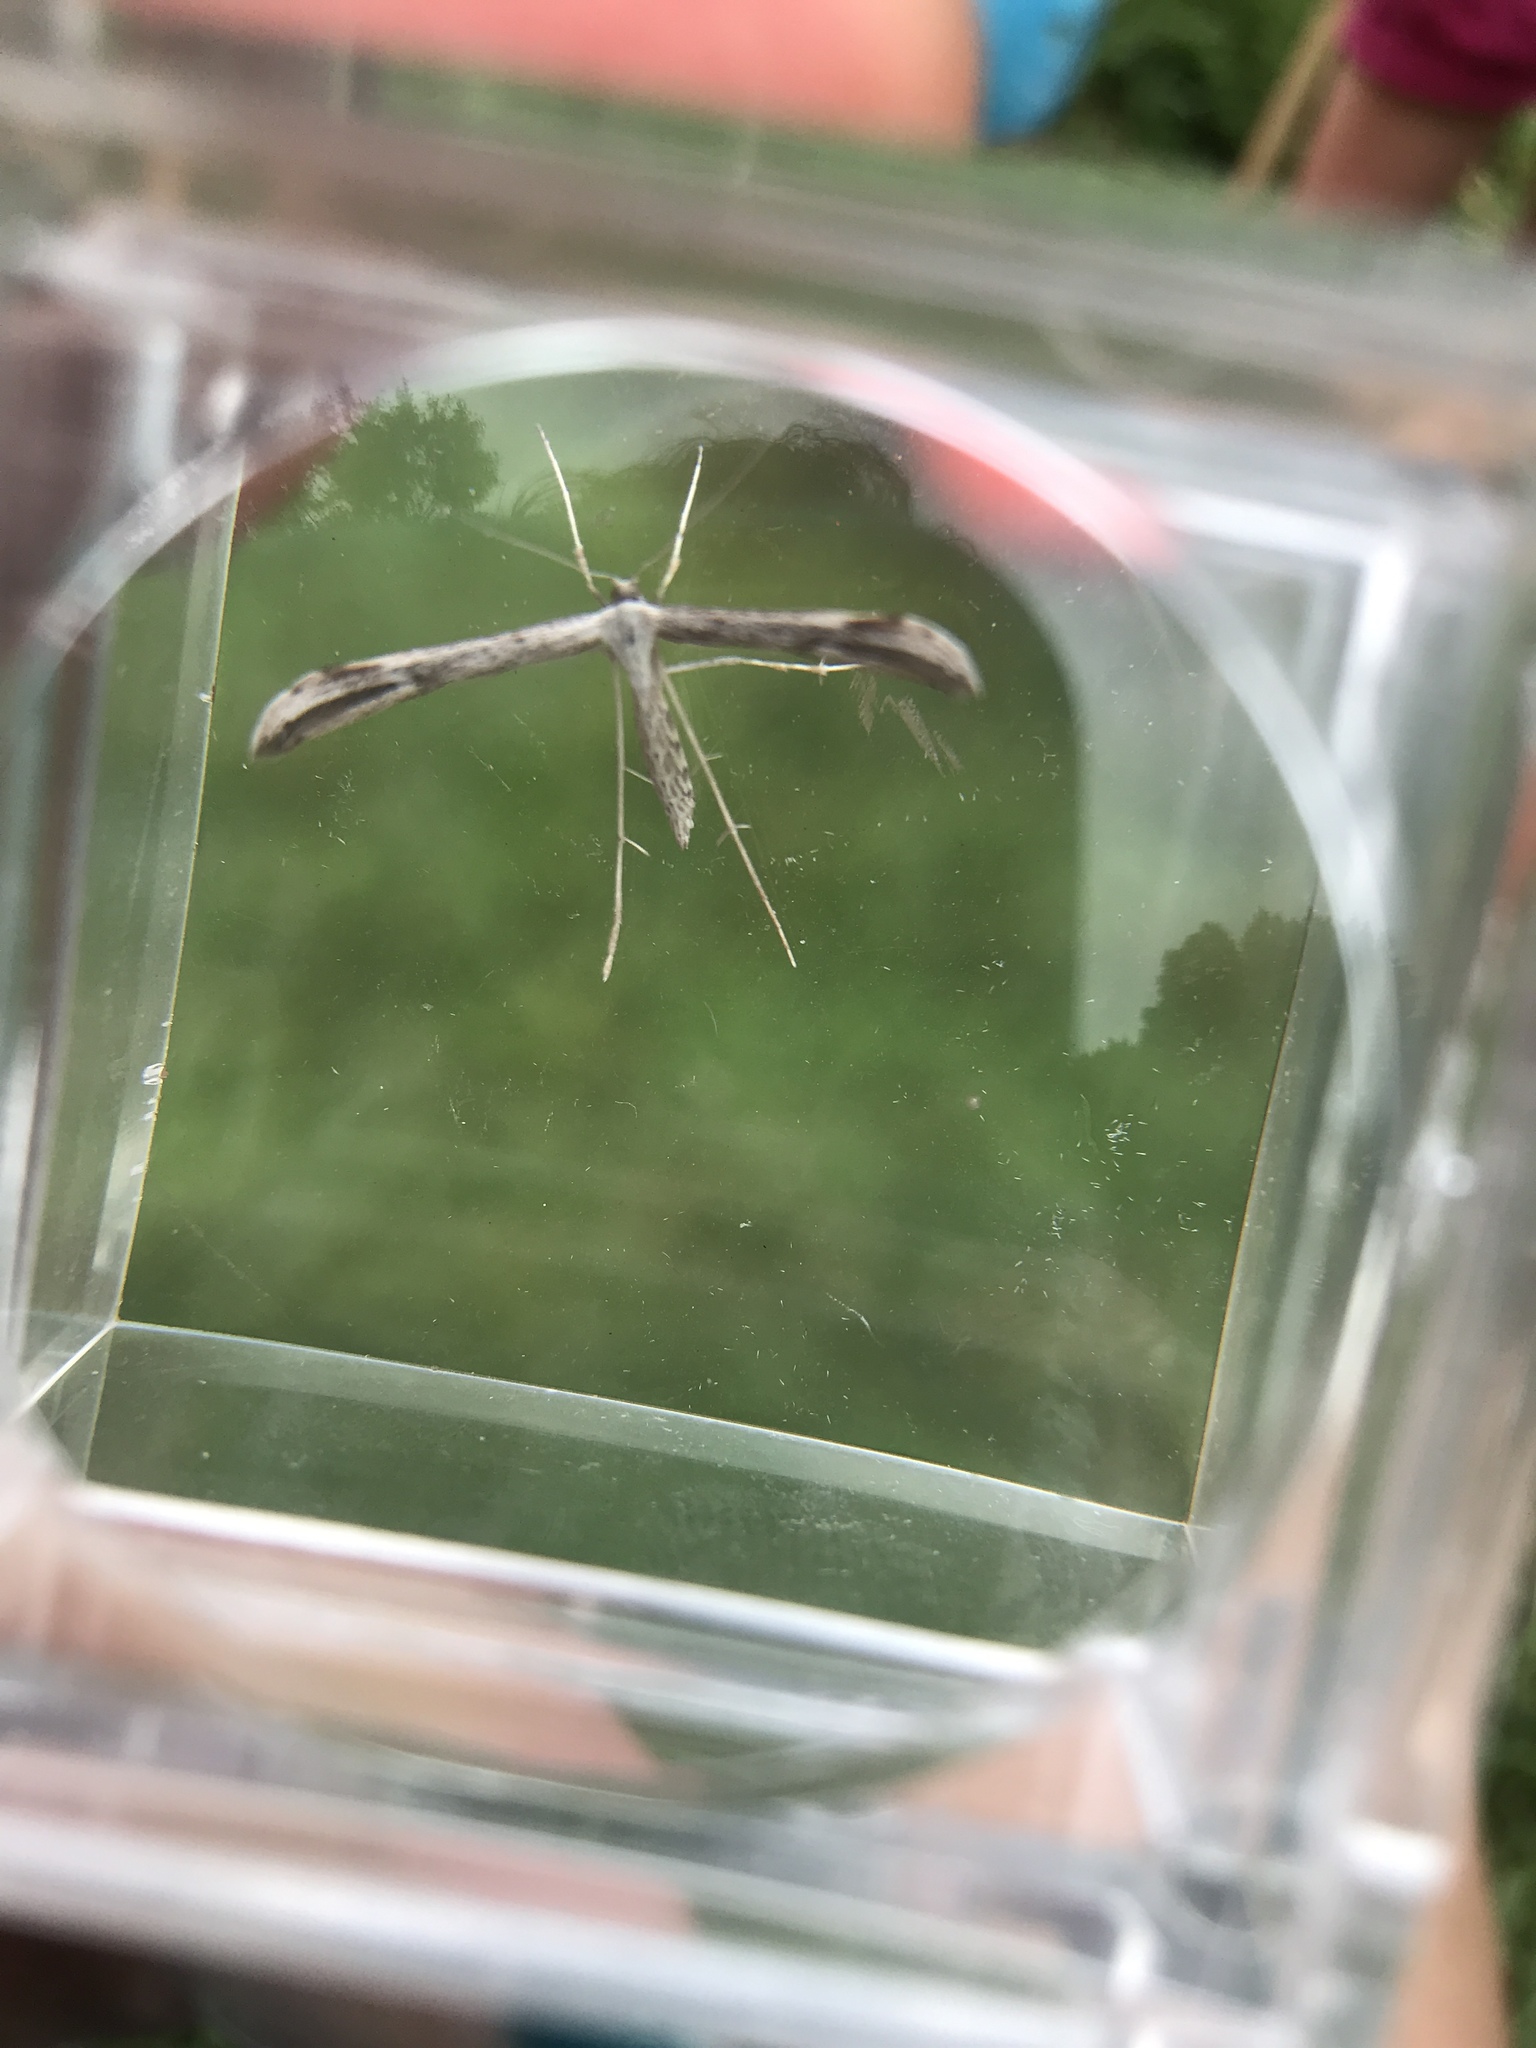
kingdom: Animalia
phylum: Arthropoda
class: Insecta
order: Lepidoptera
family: Pterophoridae
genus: Emmelina
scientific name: Emmelina monodactyla
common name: Common plume
